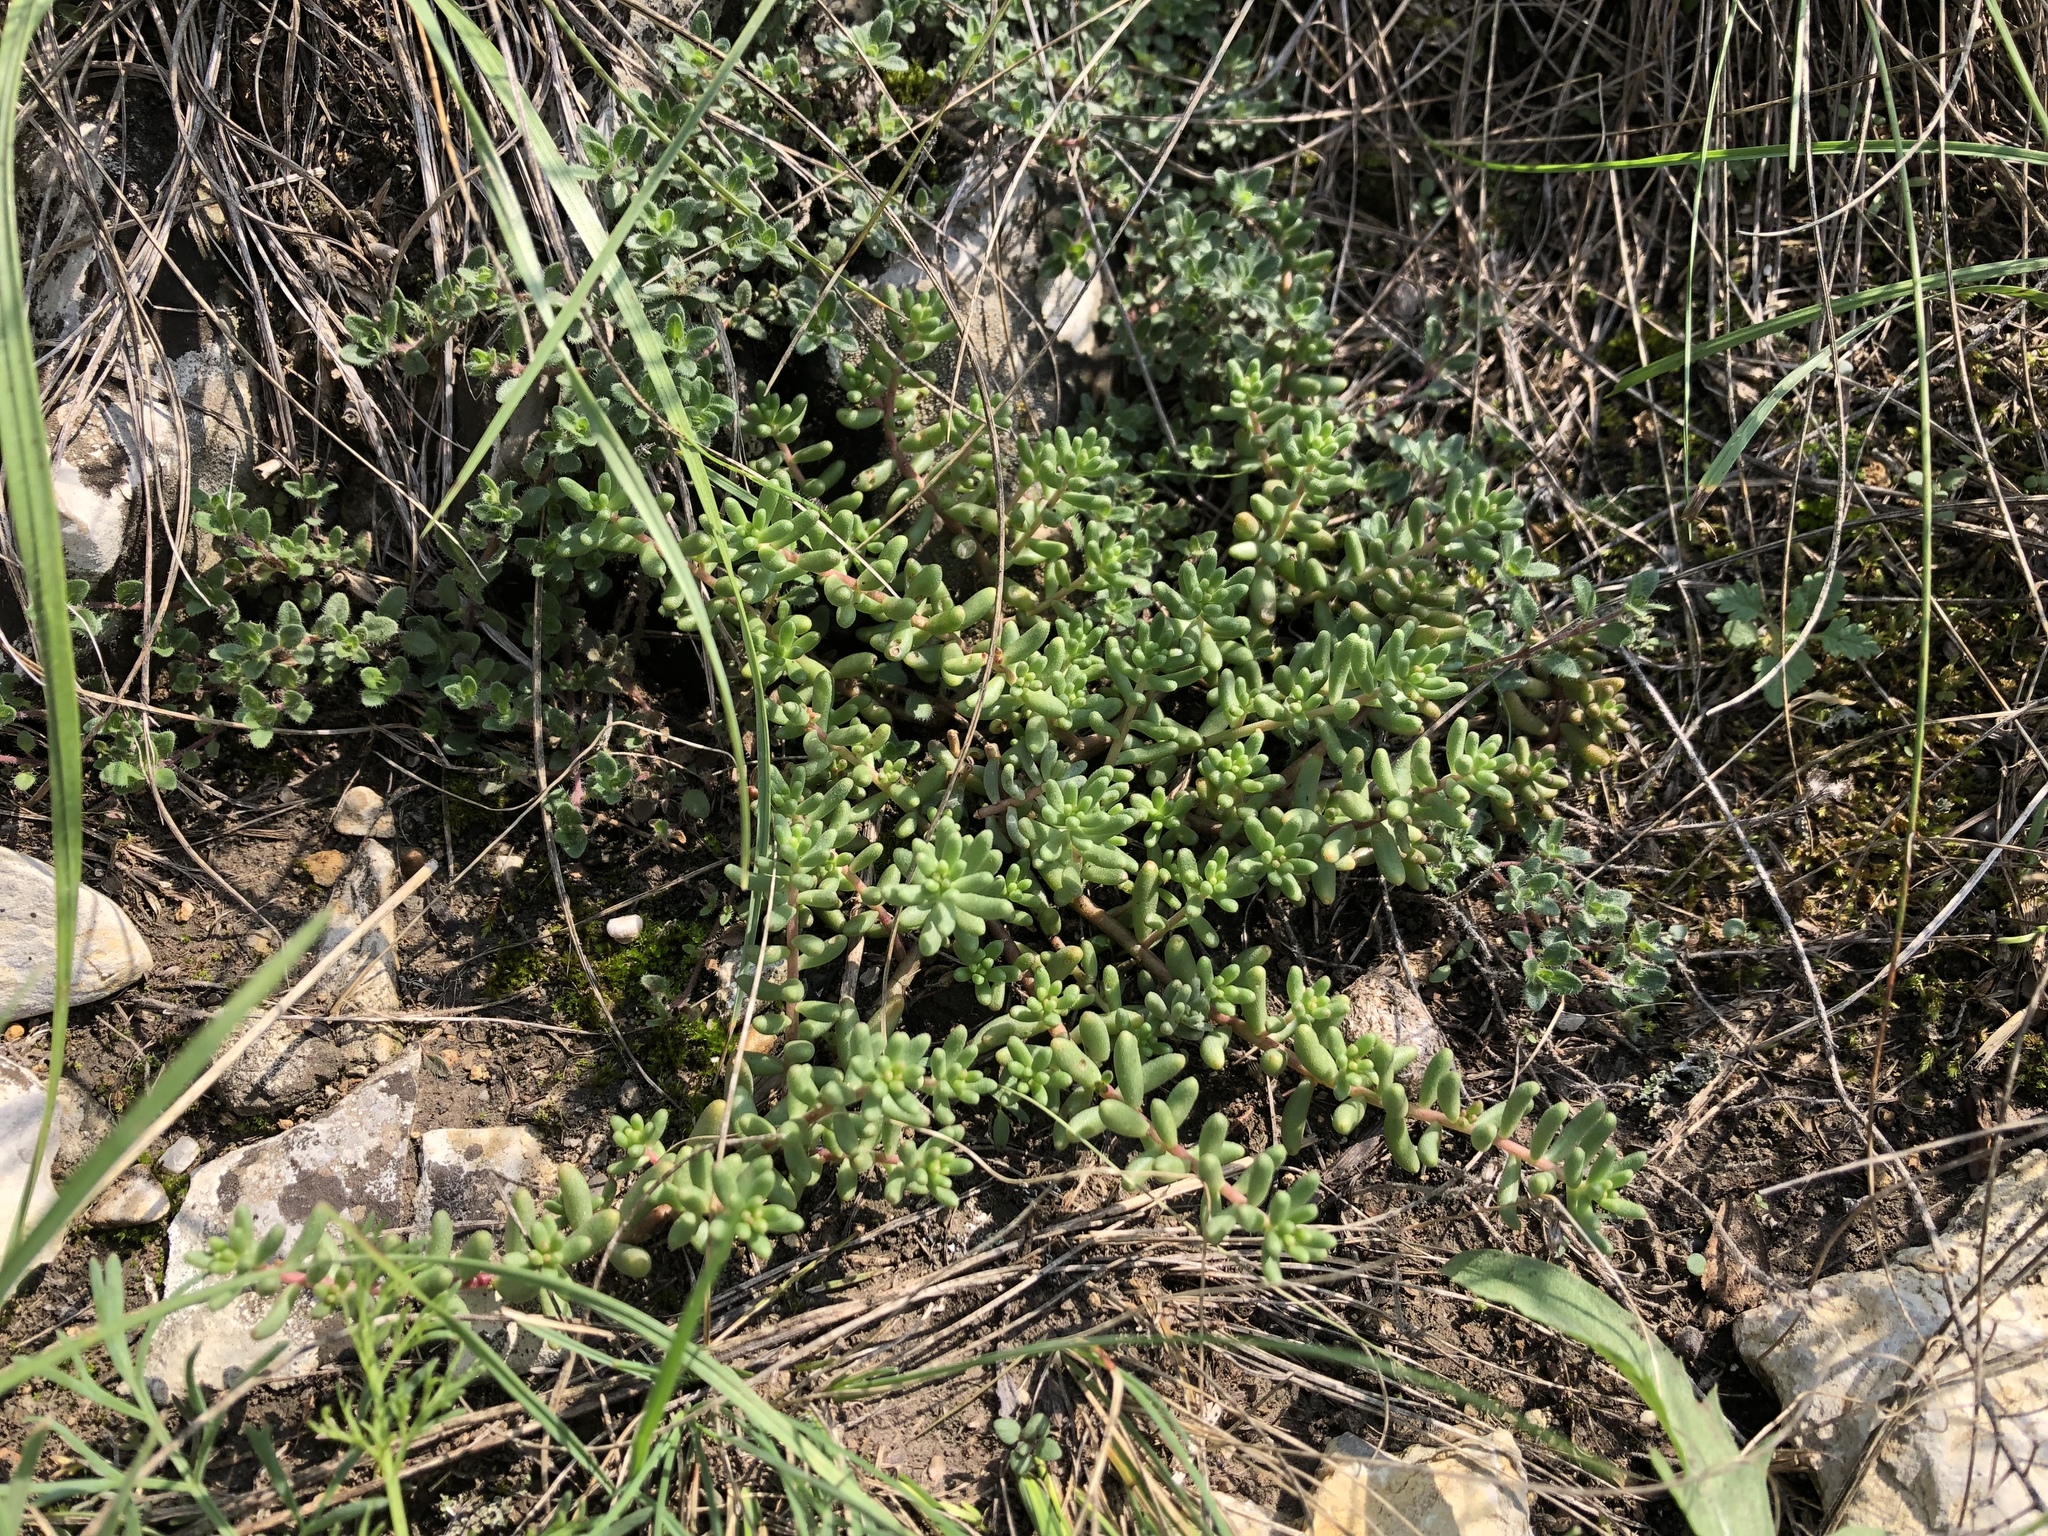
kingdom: Plantae
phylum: Tracheophyta
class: Magnoliopsida
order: Saxifragales
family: Crassulaceae
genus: Sedum
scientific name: Sedum album
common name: White stonecrop
